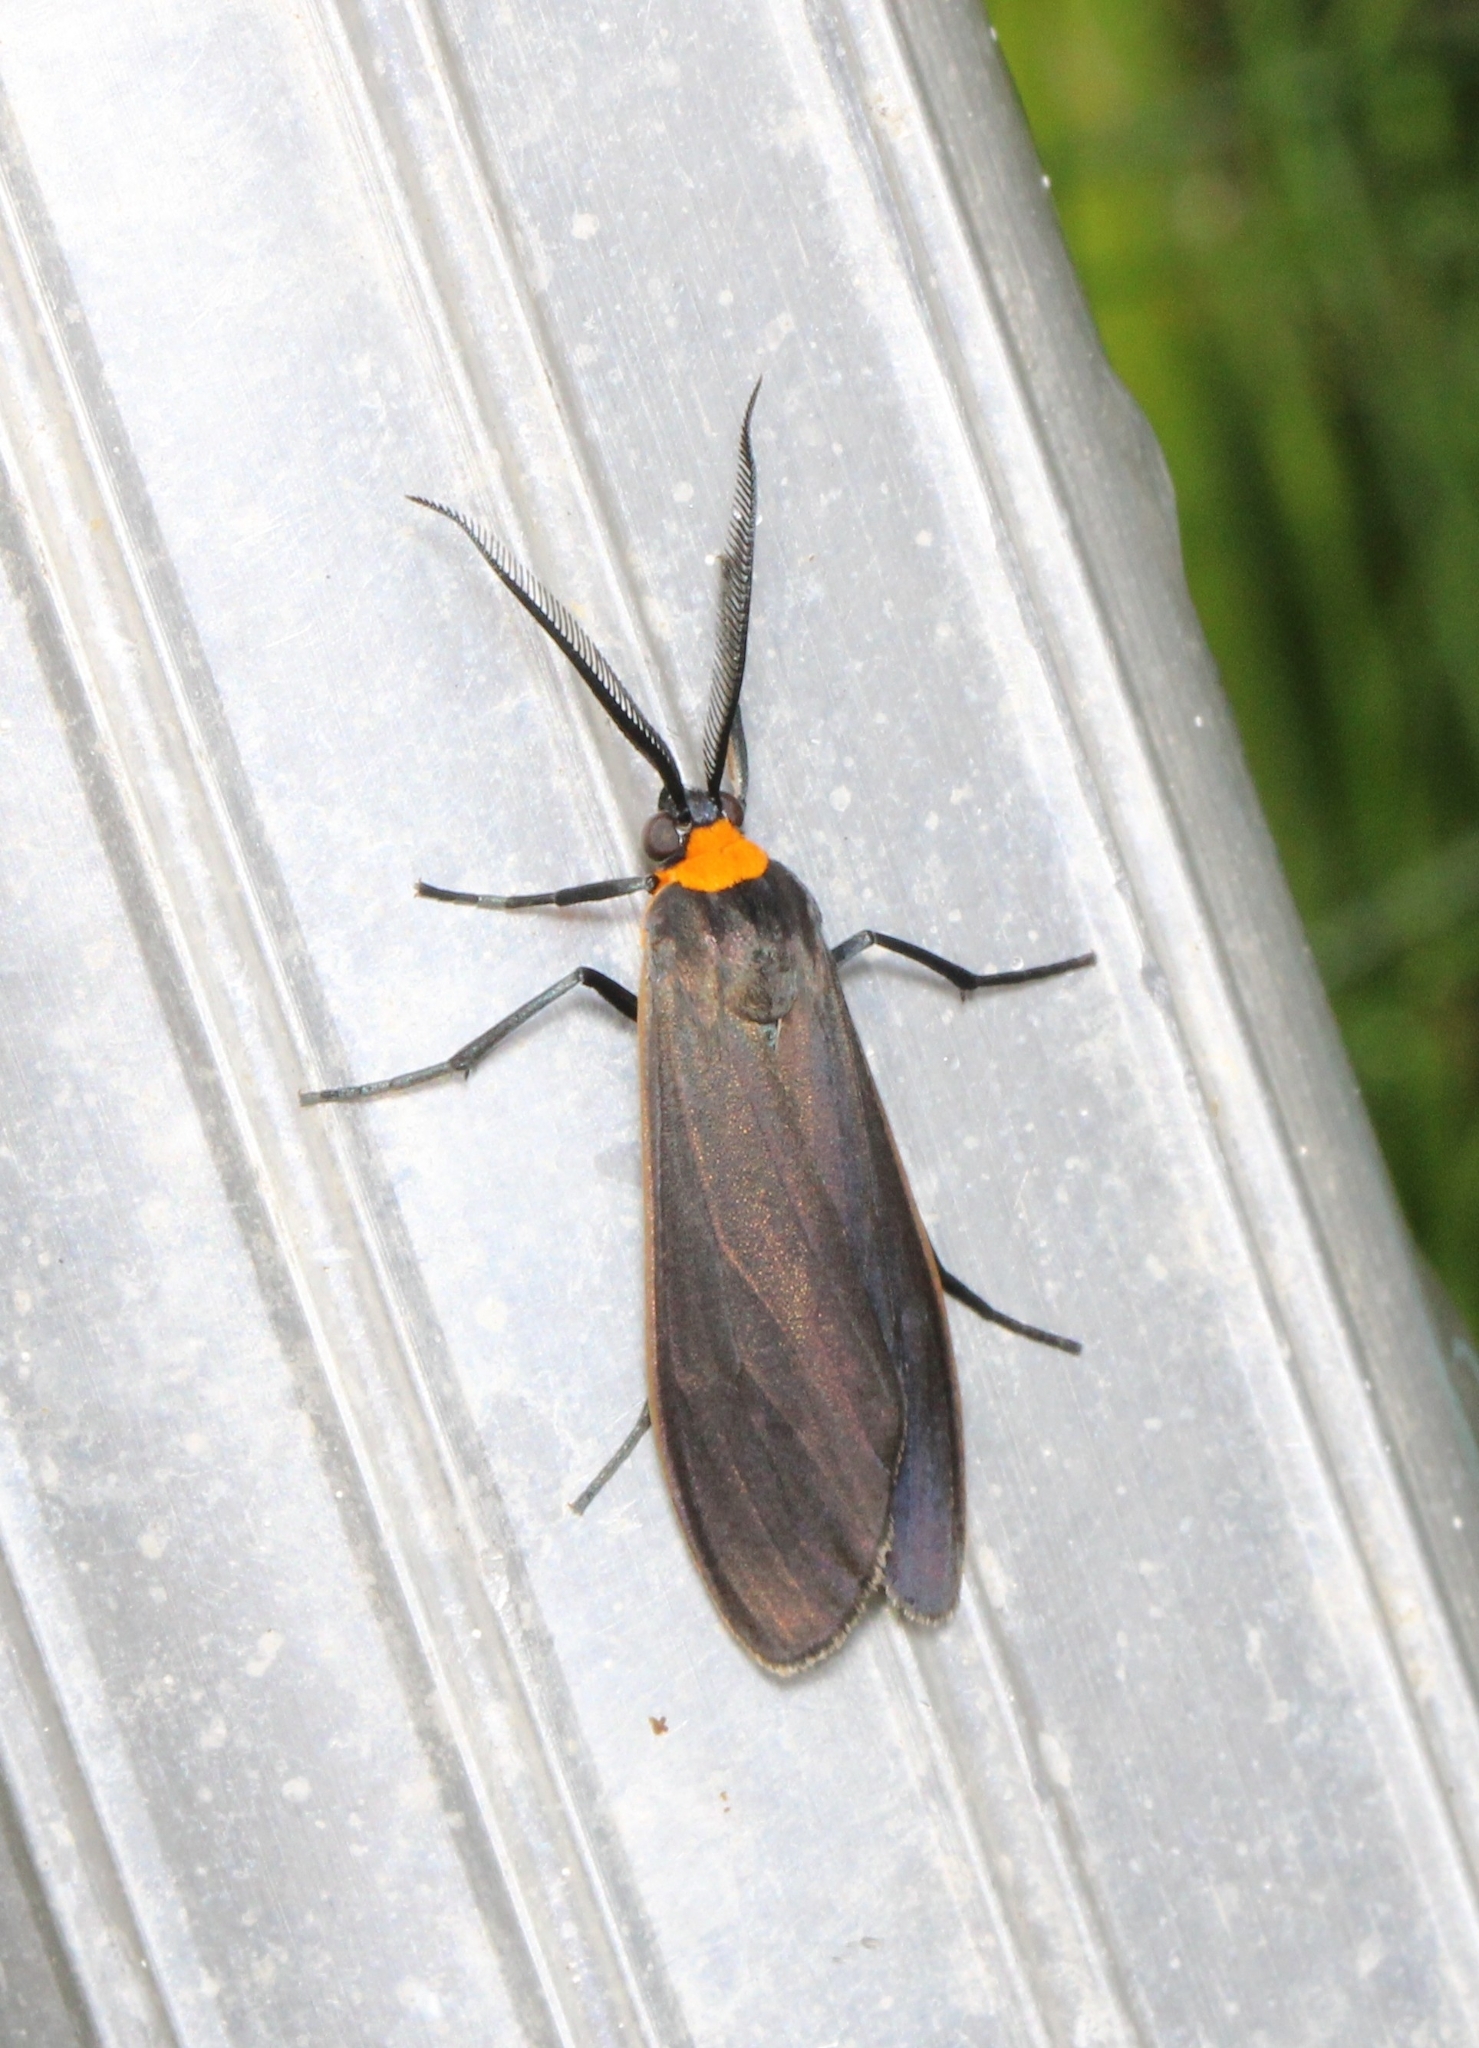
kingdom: Animalia
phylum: Arthropoda
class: Insecta
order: Lepidoptera
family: Erebidae
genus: Cisseps
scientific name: Cisseps fulvicollis
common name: Yellow-collared scape moth
